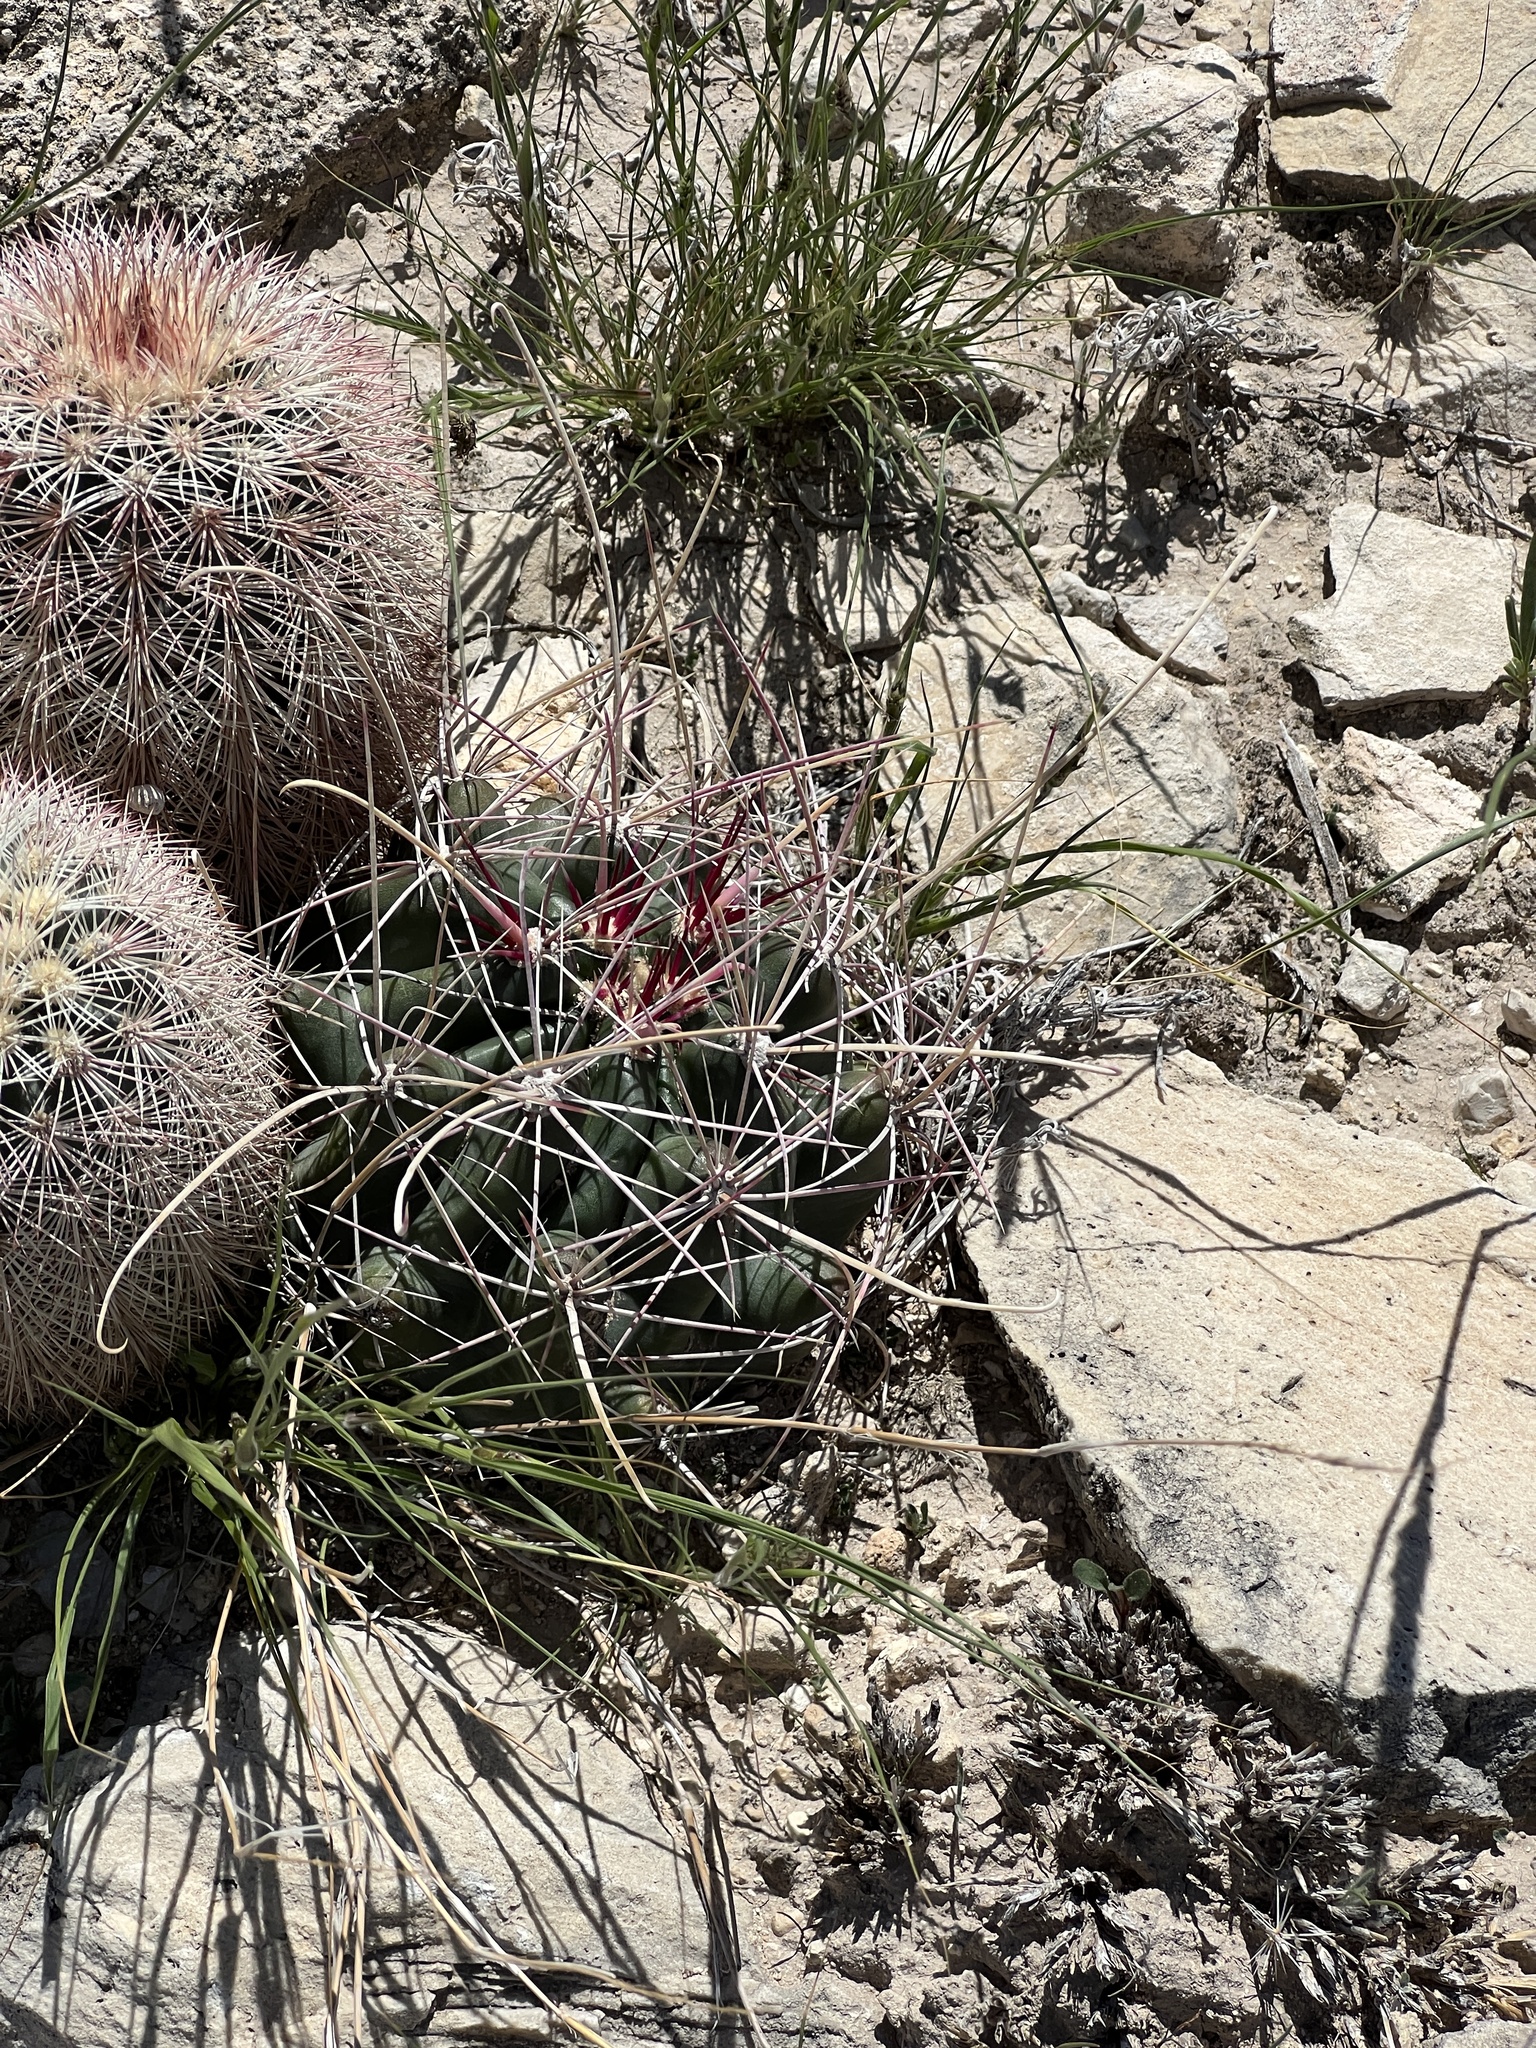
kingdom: Plantae
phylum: Tracheophyta
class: Magnoliopsida
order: Caryophyllales
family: Cactaceae
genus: Bisnaga
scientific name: Bisnaga hamatacantha
